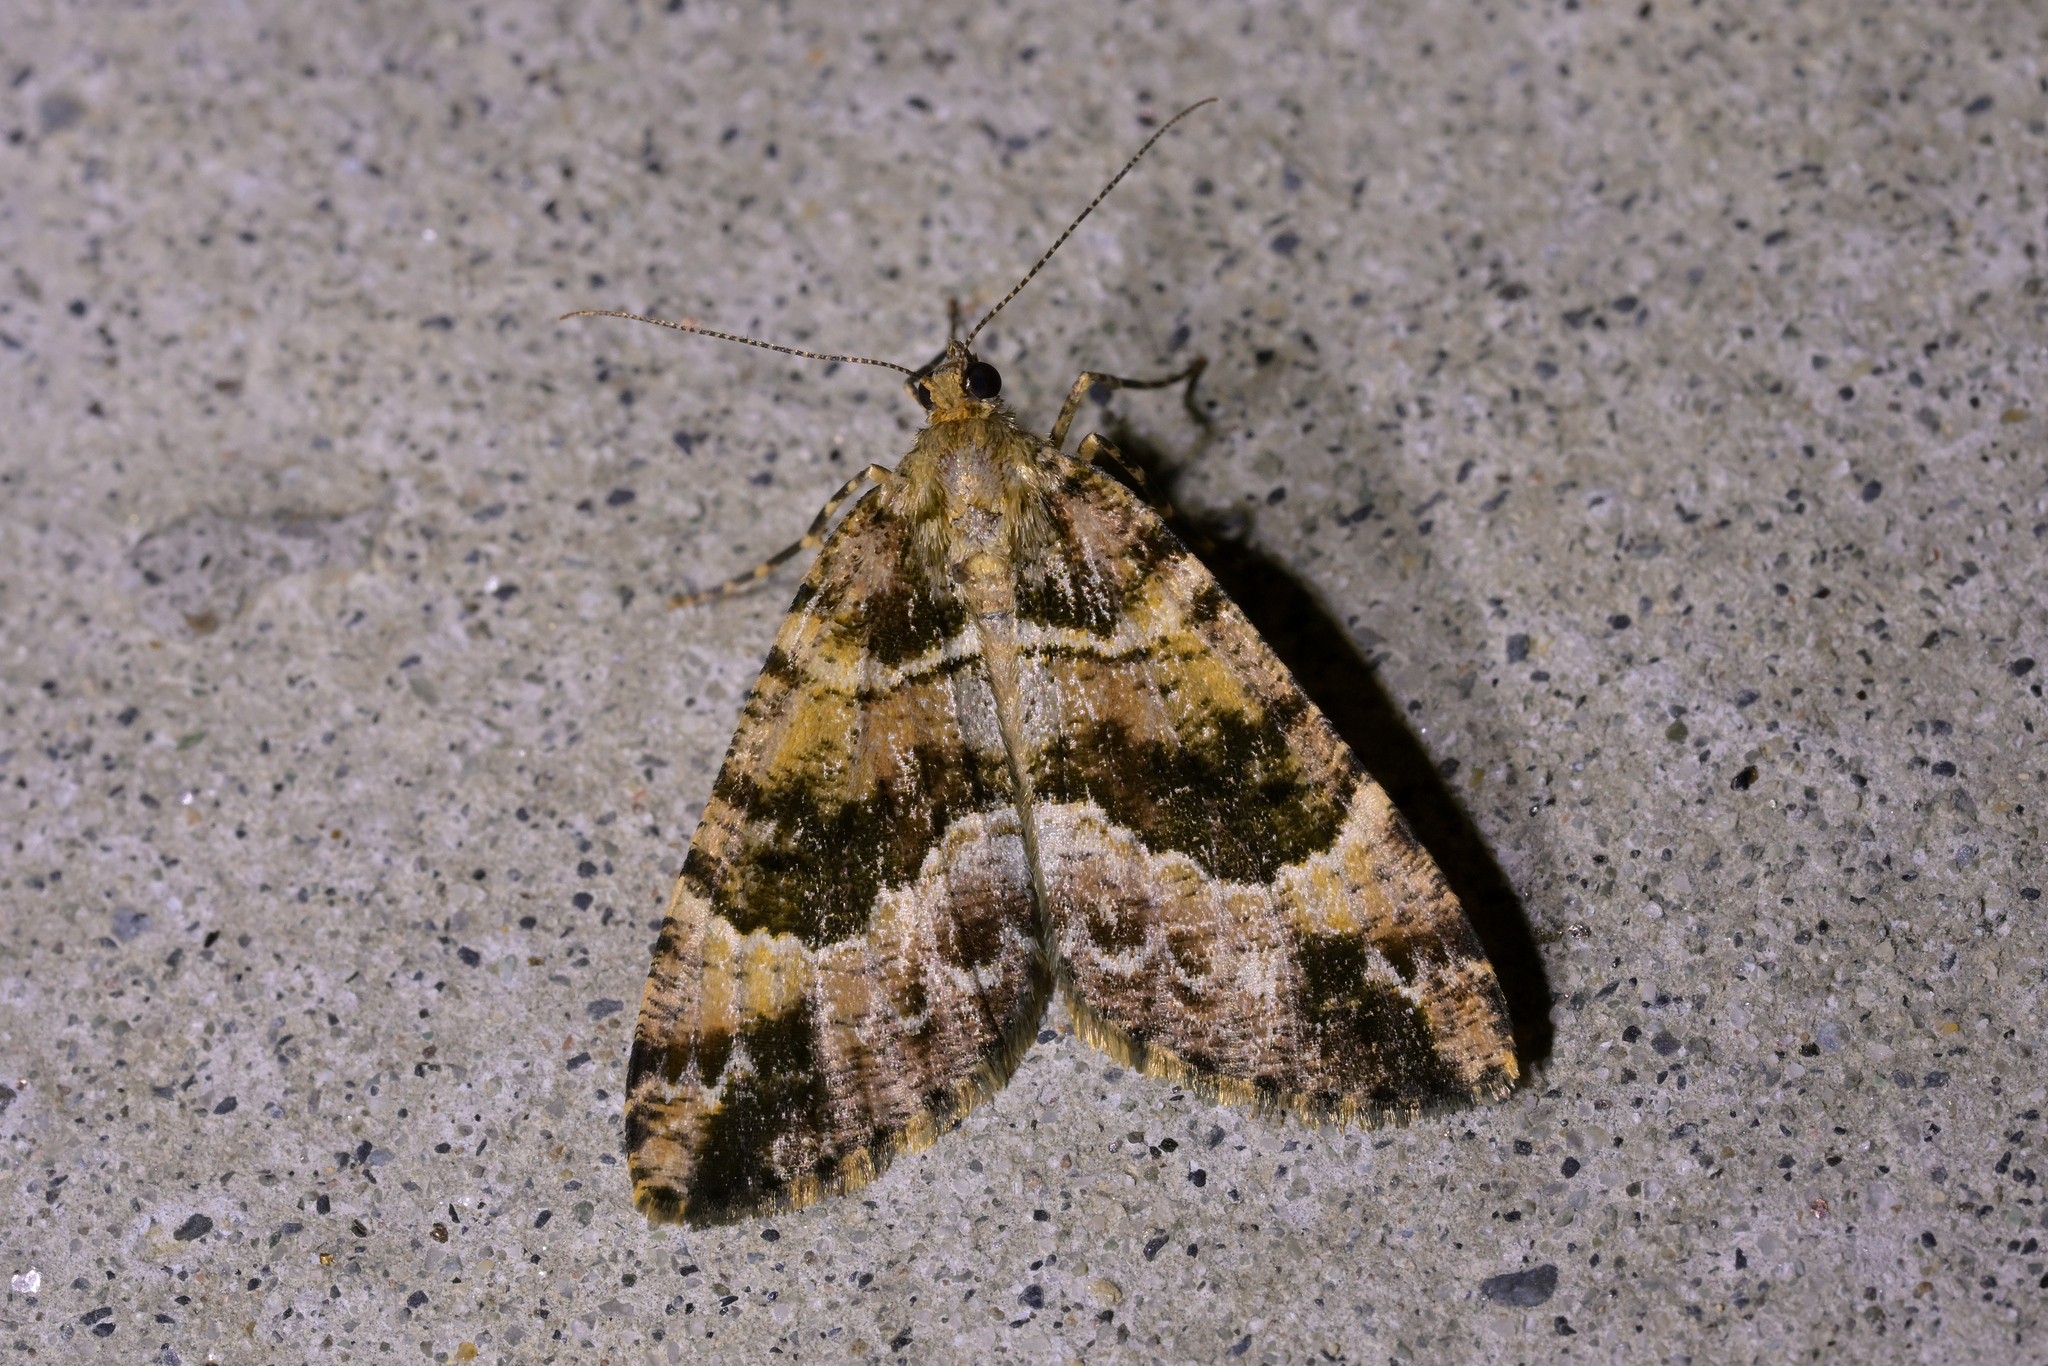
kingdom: Animalia
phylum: Arthropoda
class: Insecta
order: Lepidoptera
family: Geometridae
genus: Pseudocoremia
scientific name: Pseudocoremia productata
